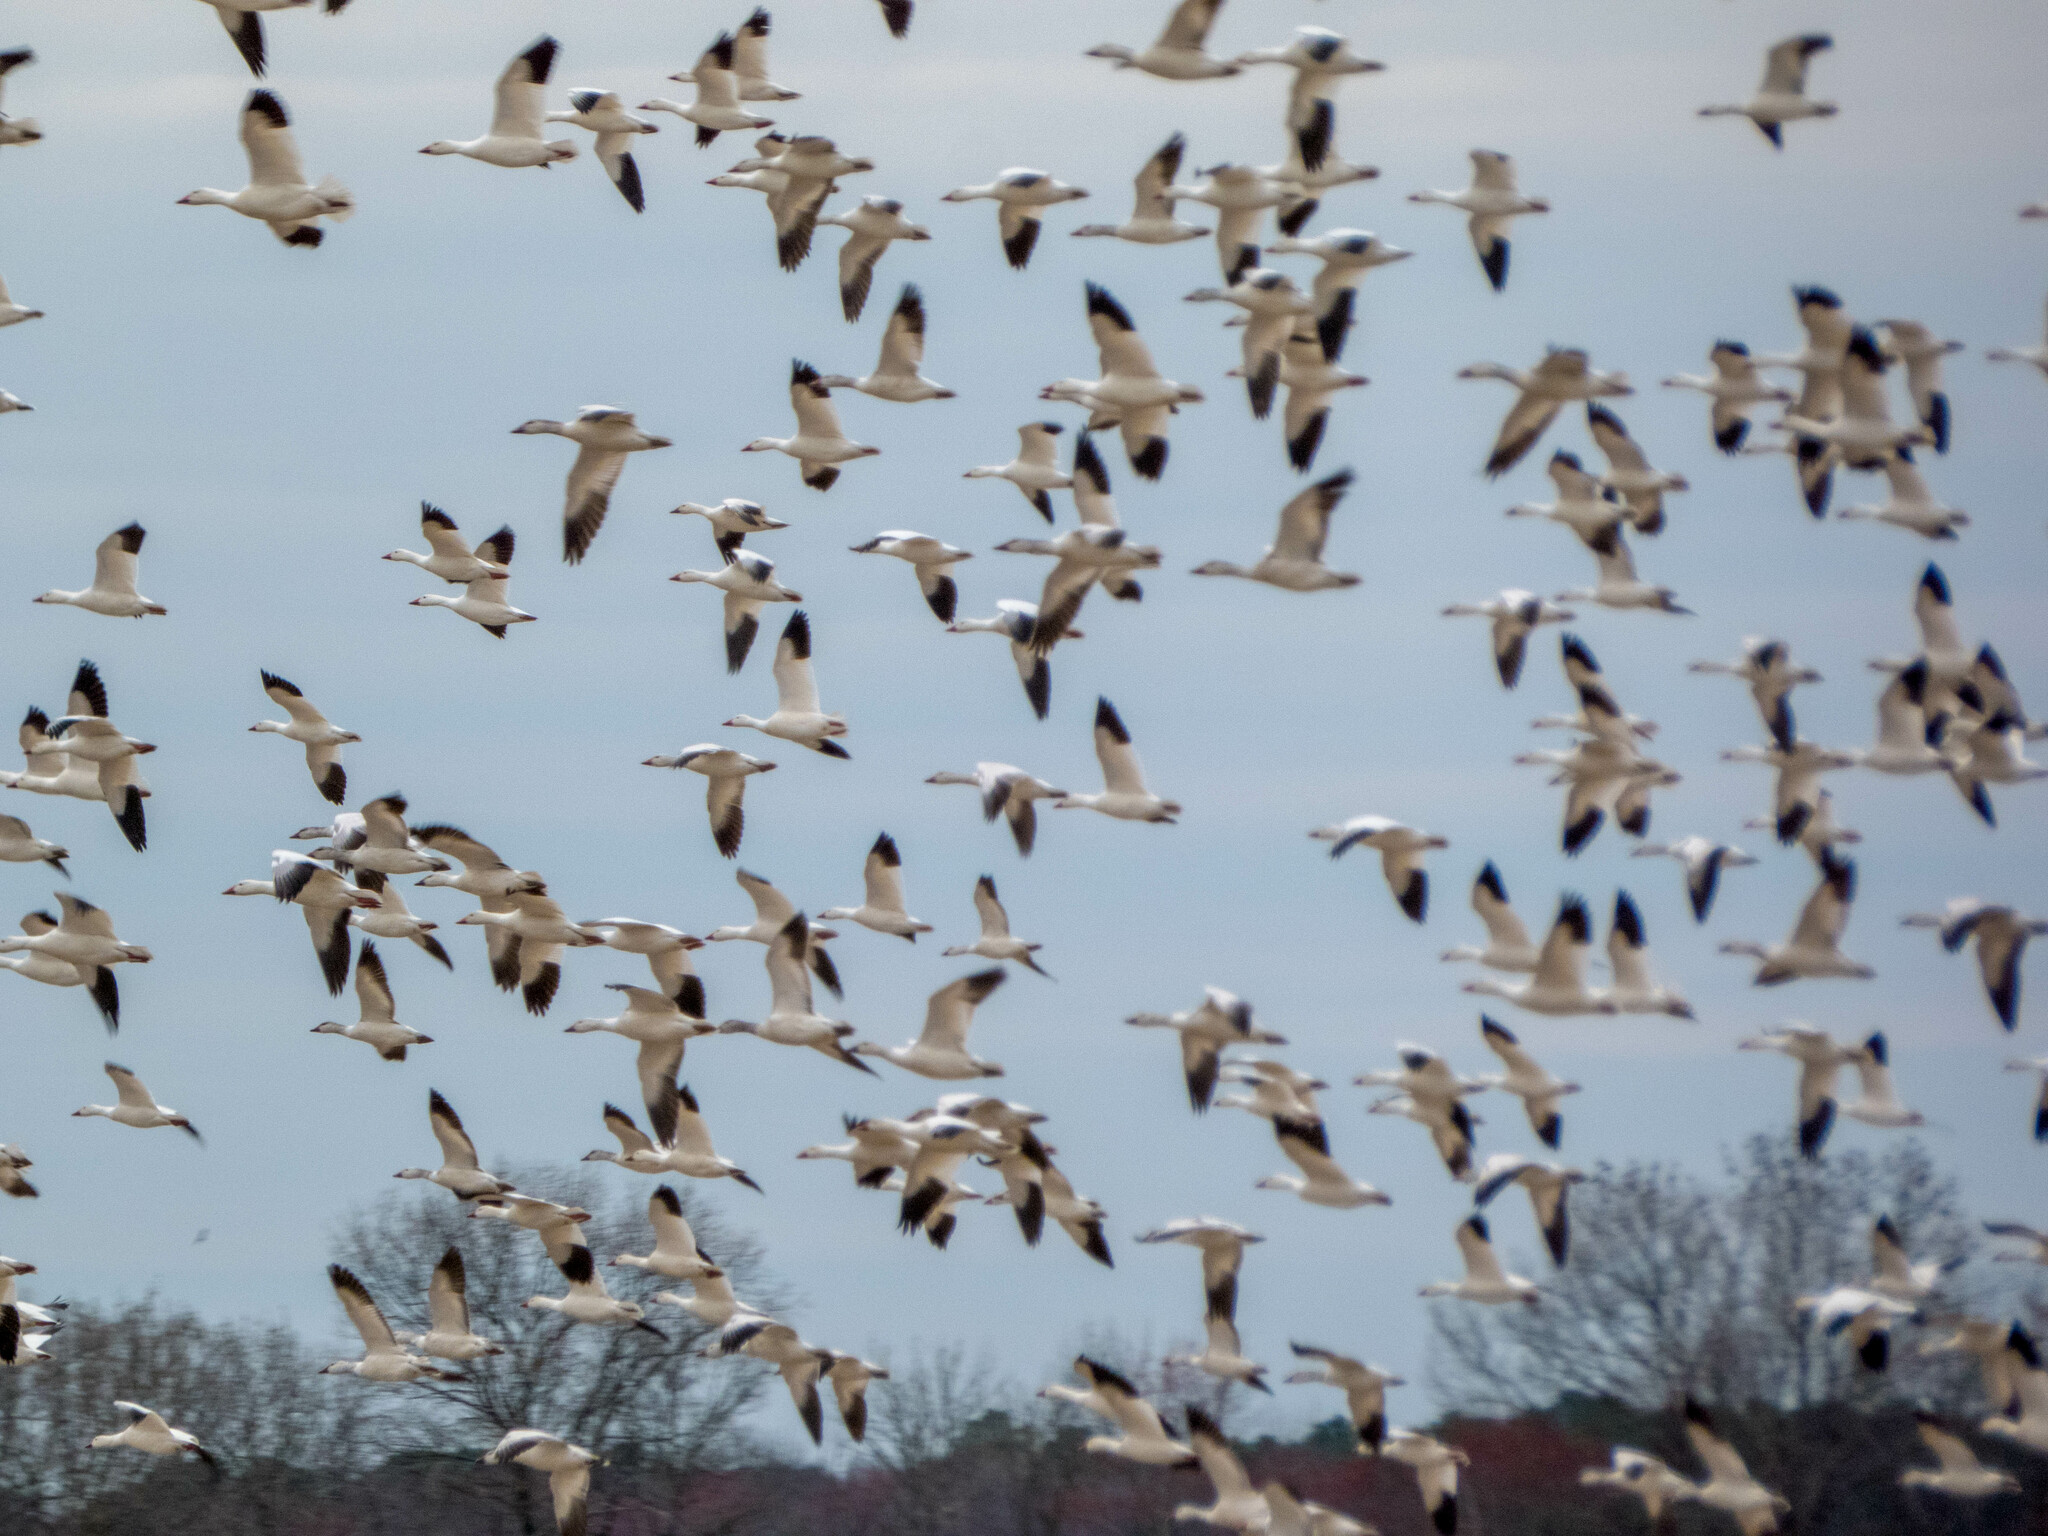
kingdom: Animalia
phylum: Chordata
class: Aves
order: Anseriformes
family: Anatidae
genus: Anser
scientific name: Anser caerulescens
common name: Snow goose
